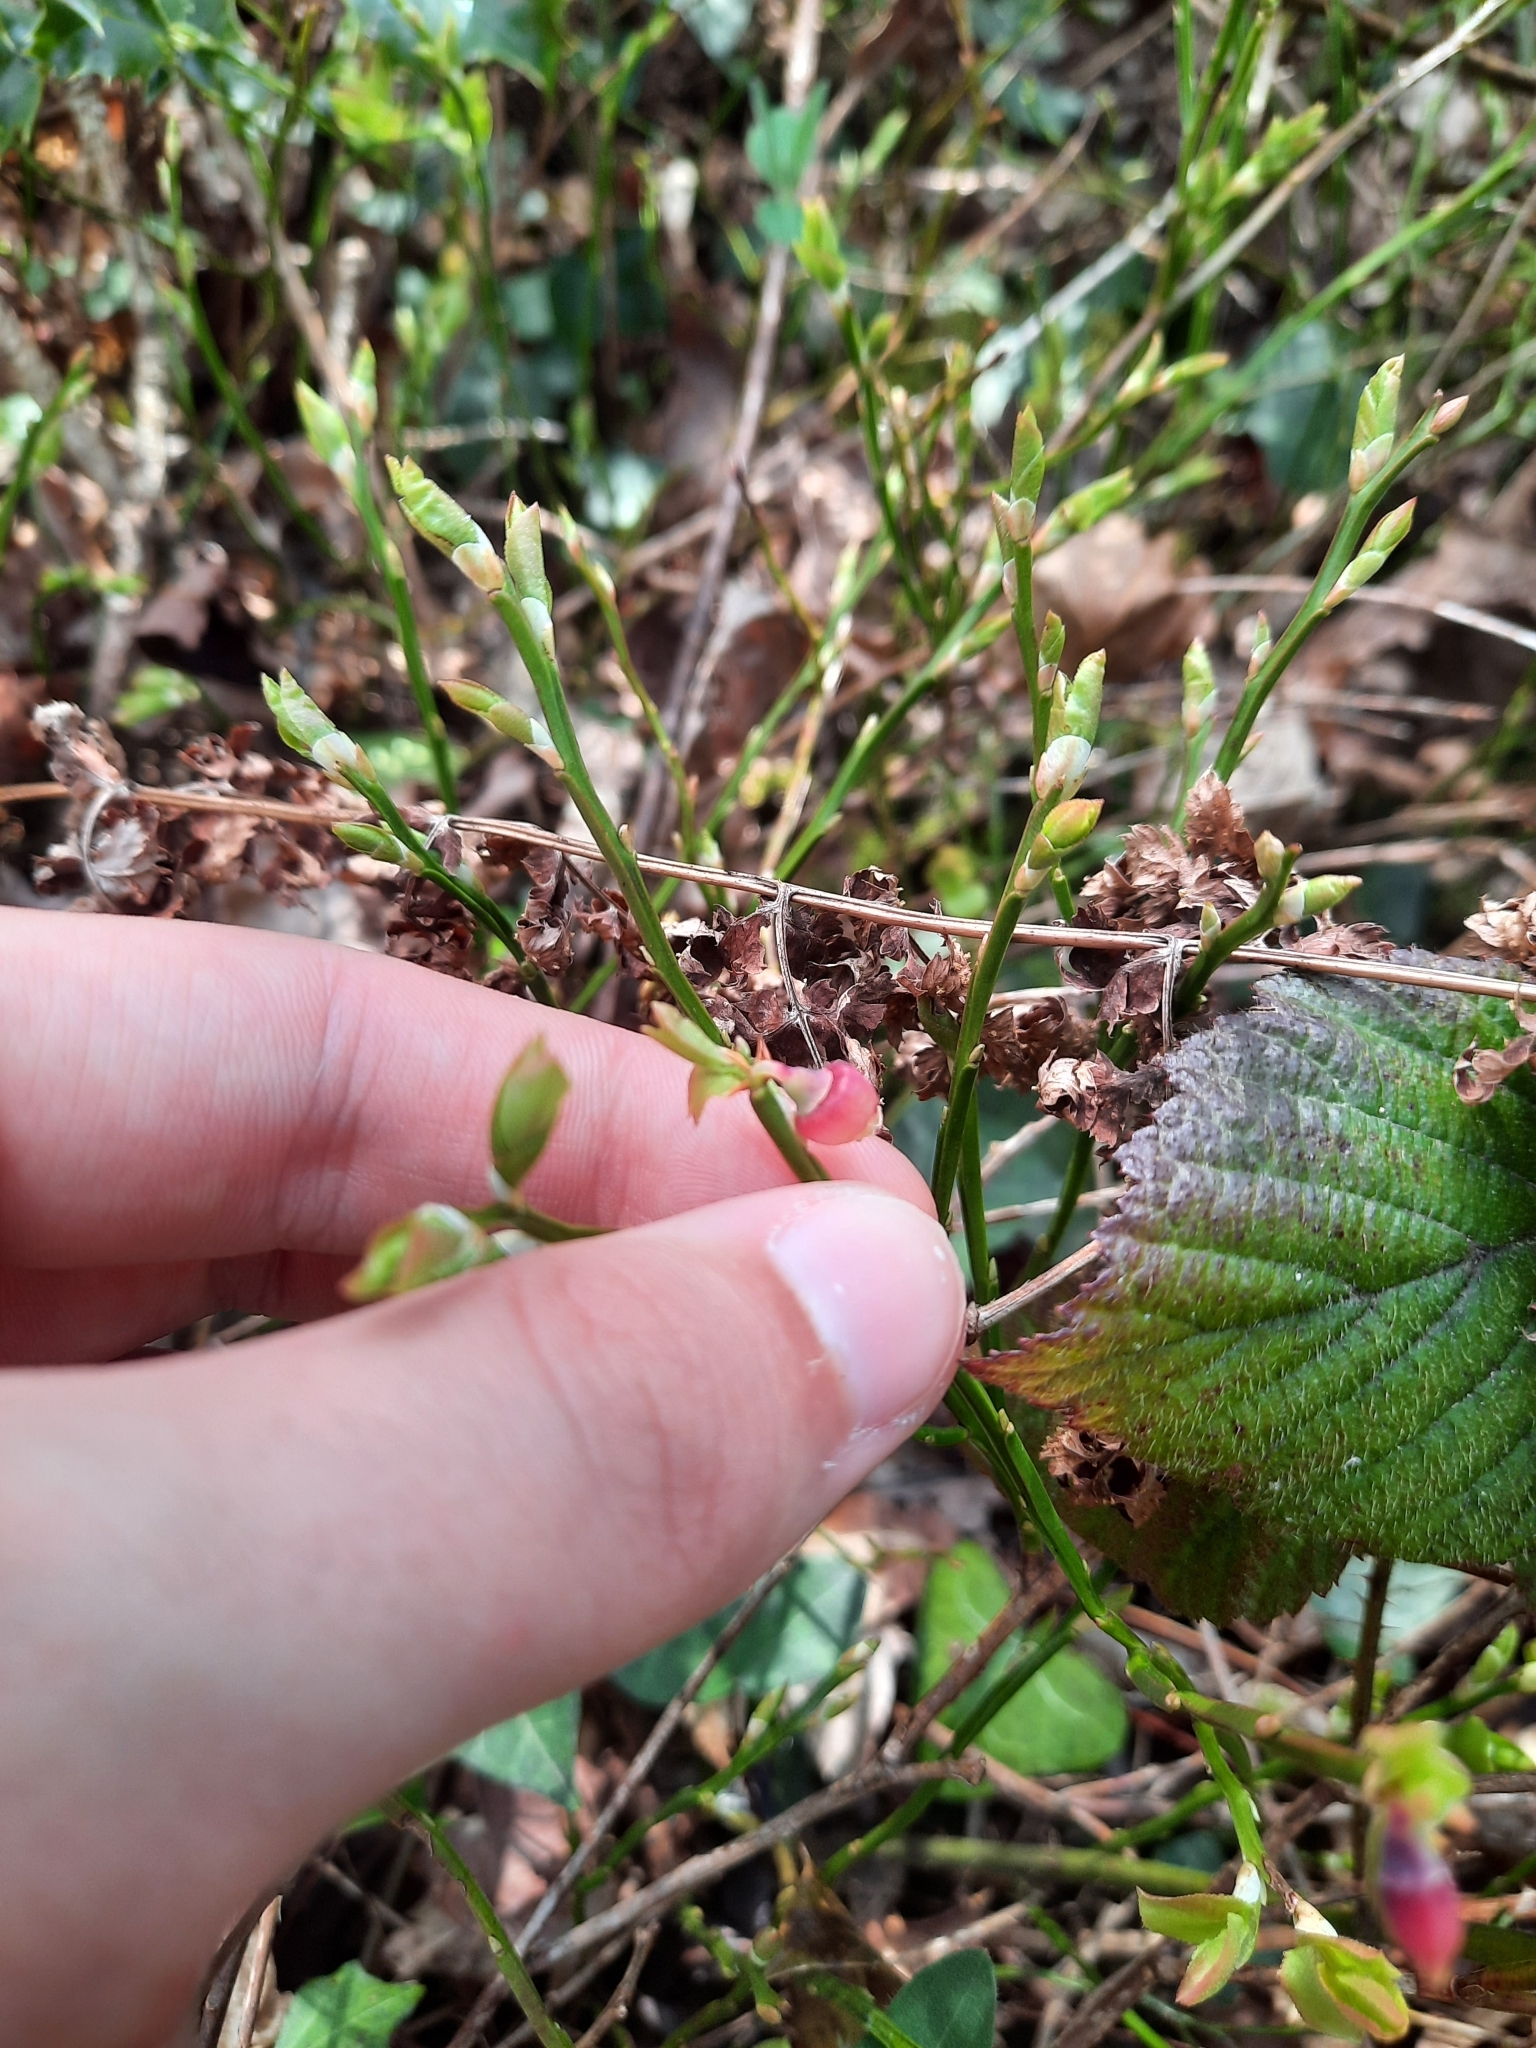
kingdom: Plantae
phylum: Tracheophyta
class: Magnoliopsida
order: Ericales
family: Ericaceae
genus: Vaccinium
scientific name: Vaccinium myrtillus
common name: Bilberry
